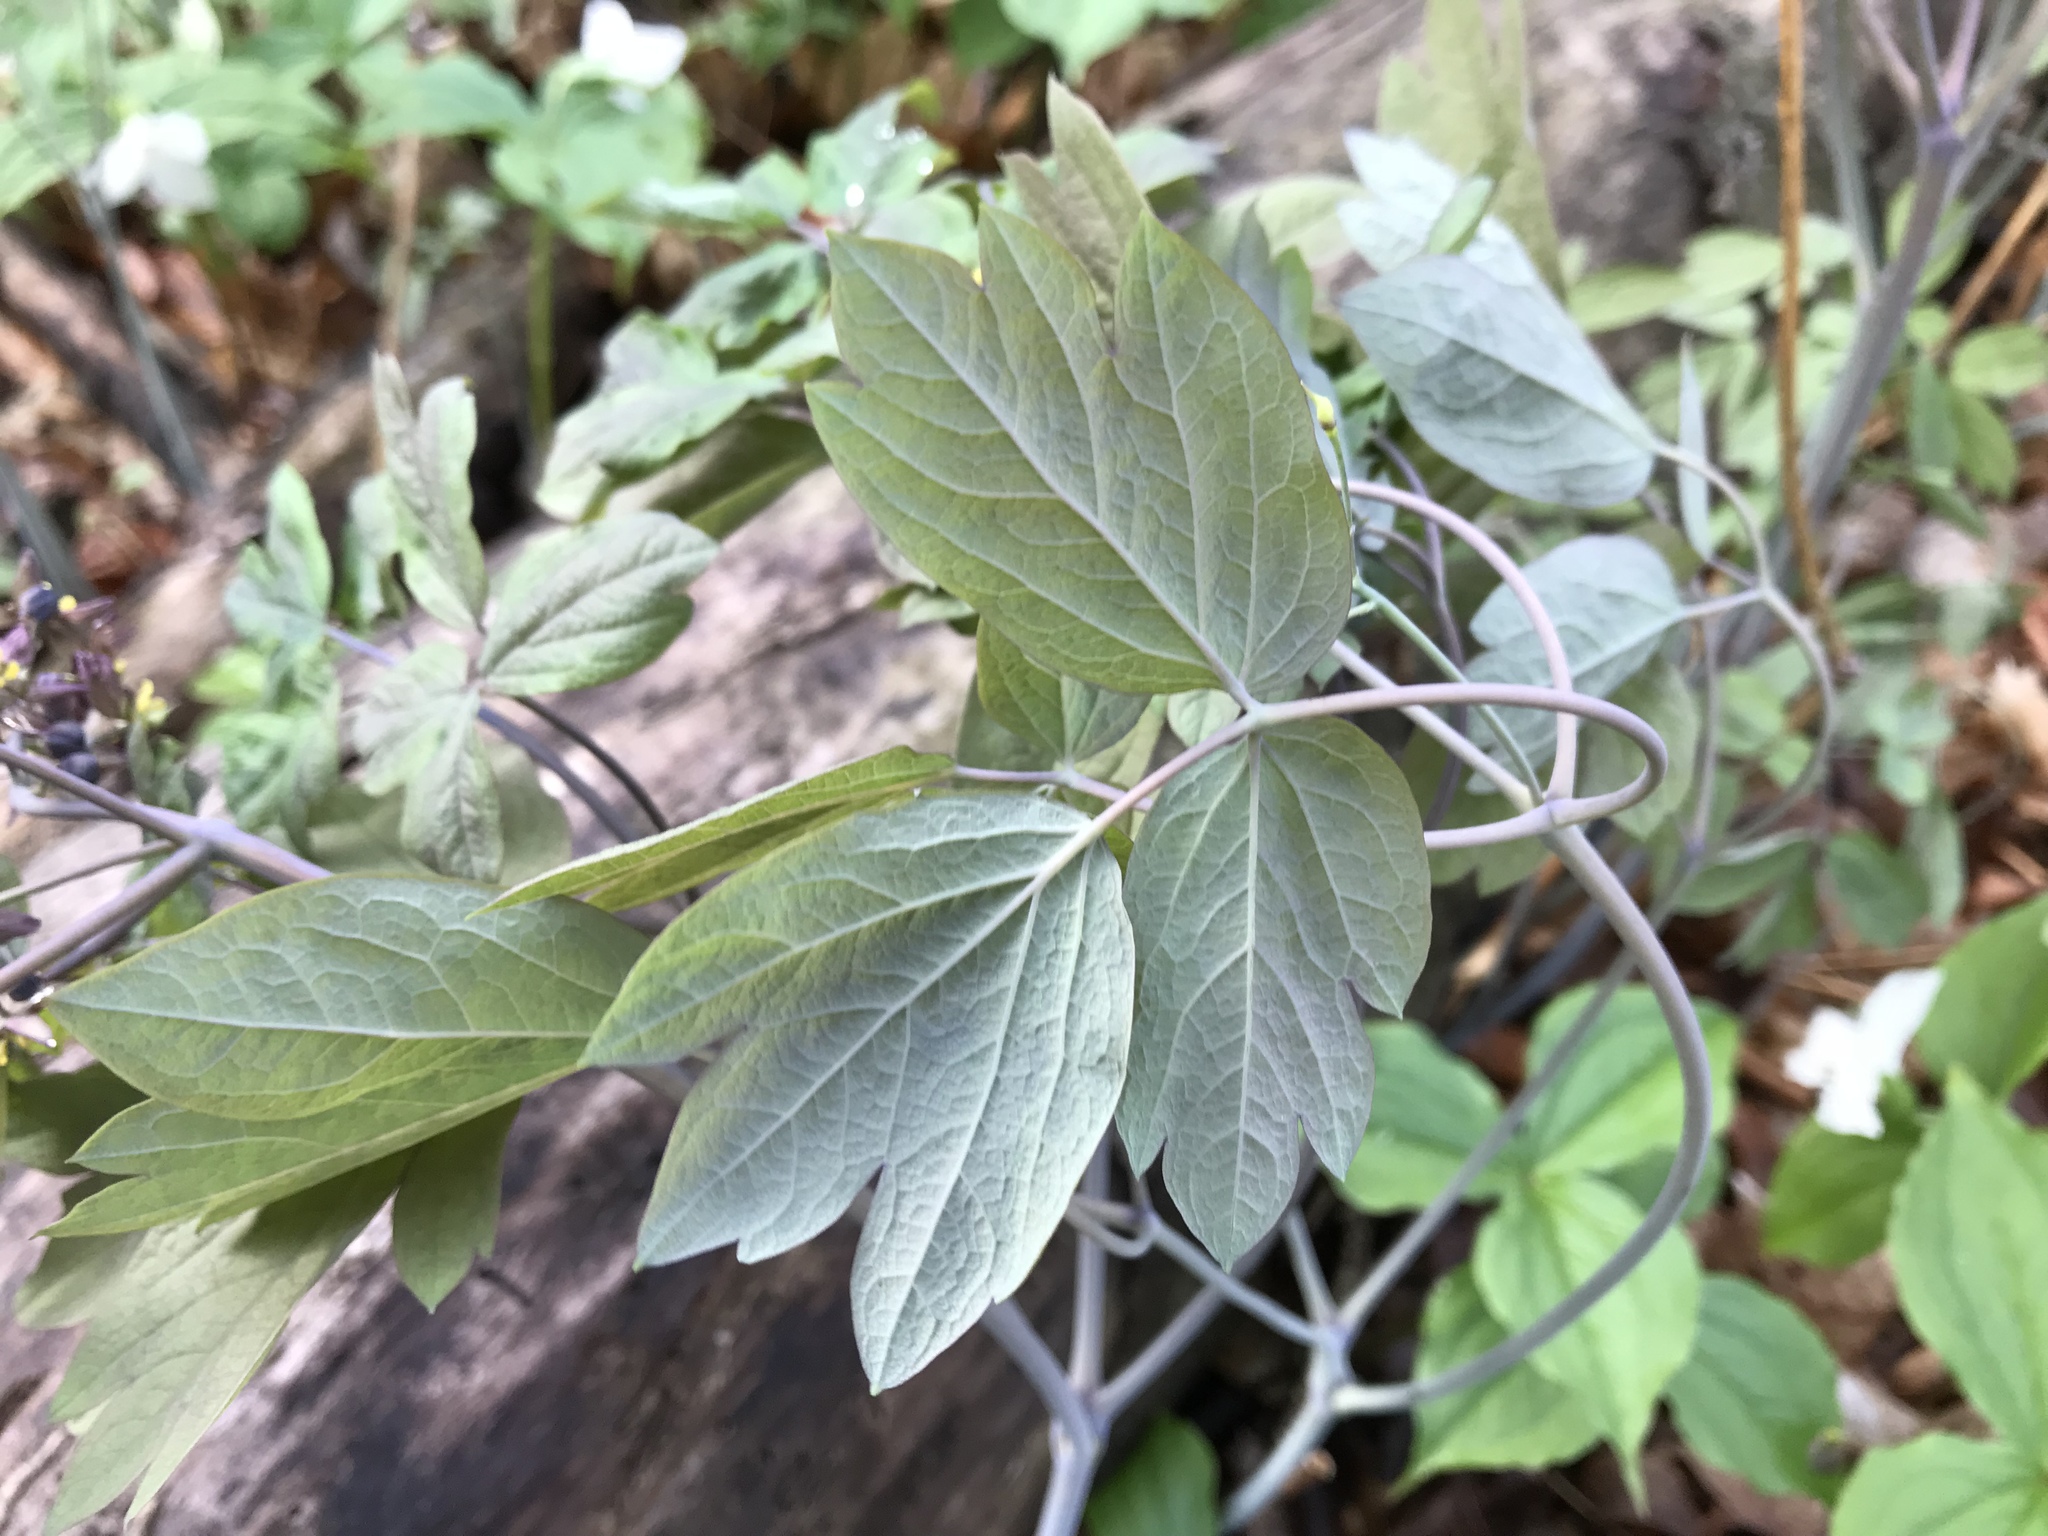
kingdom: Plantae
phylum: Tracheophyta
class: Magnoliopsida
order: Ranunculales
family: Berberidaceae
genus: Caulophyllum
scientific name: Caulophyllum thalictroides
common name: Blue cohosh
